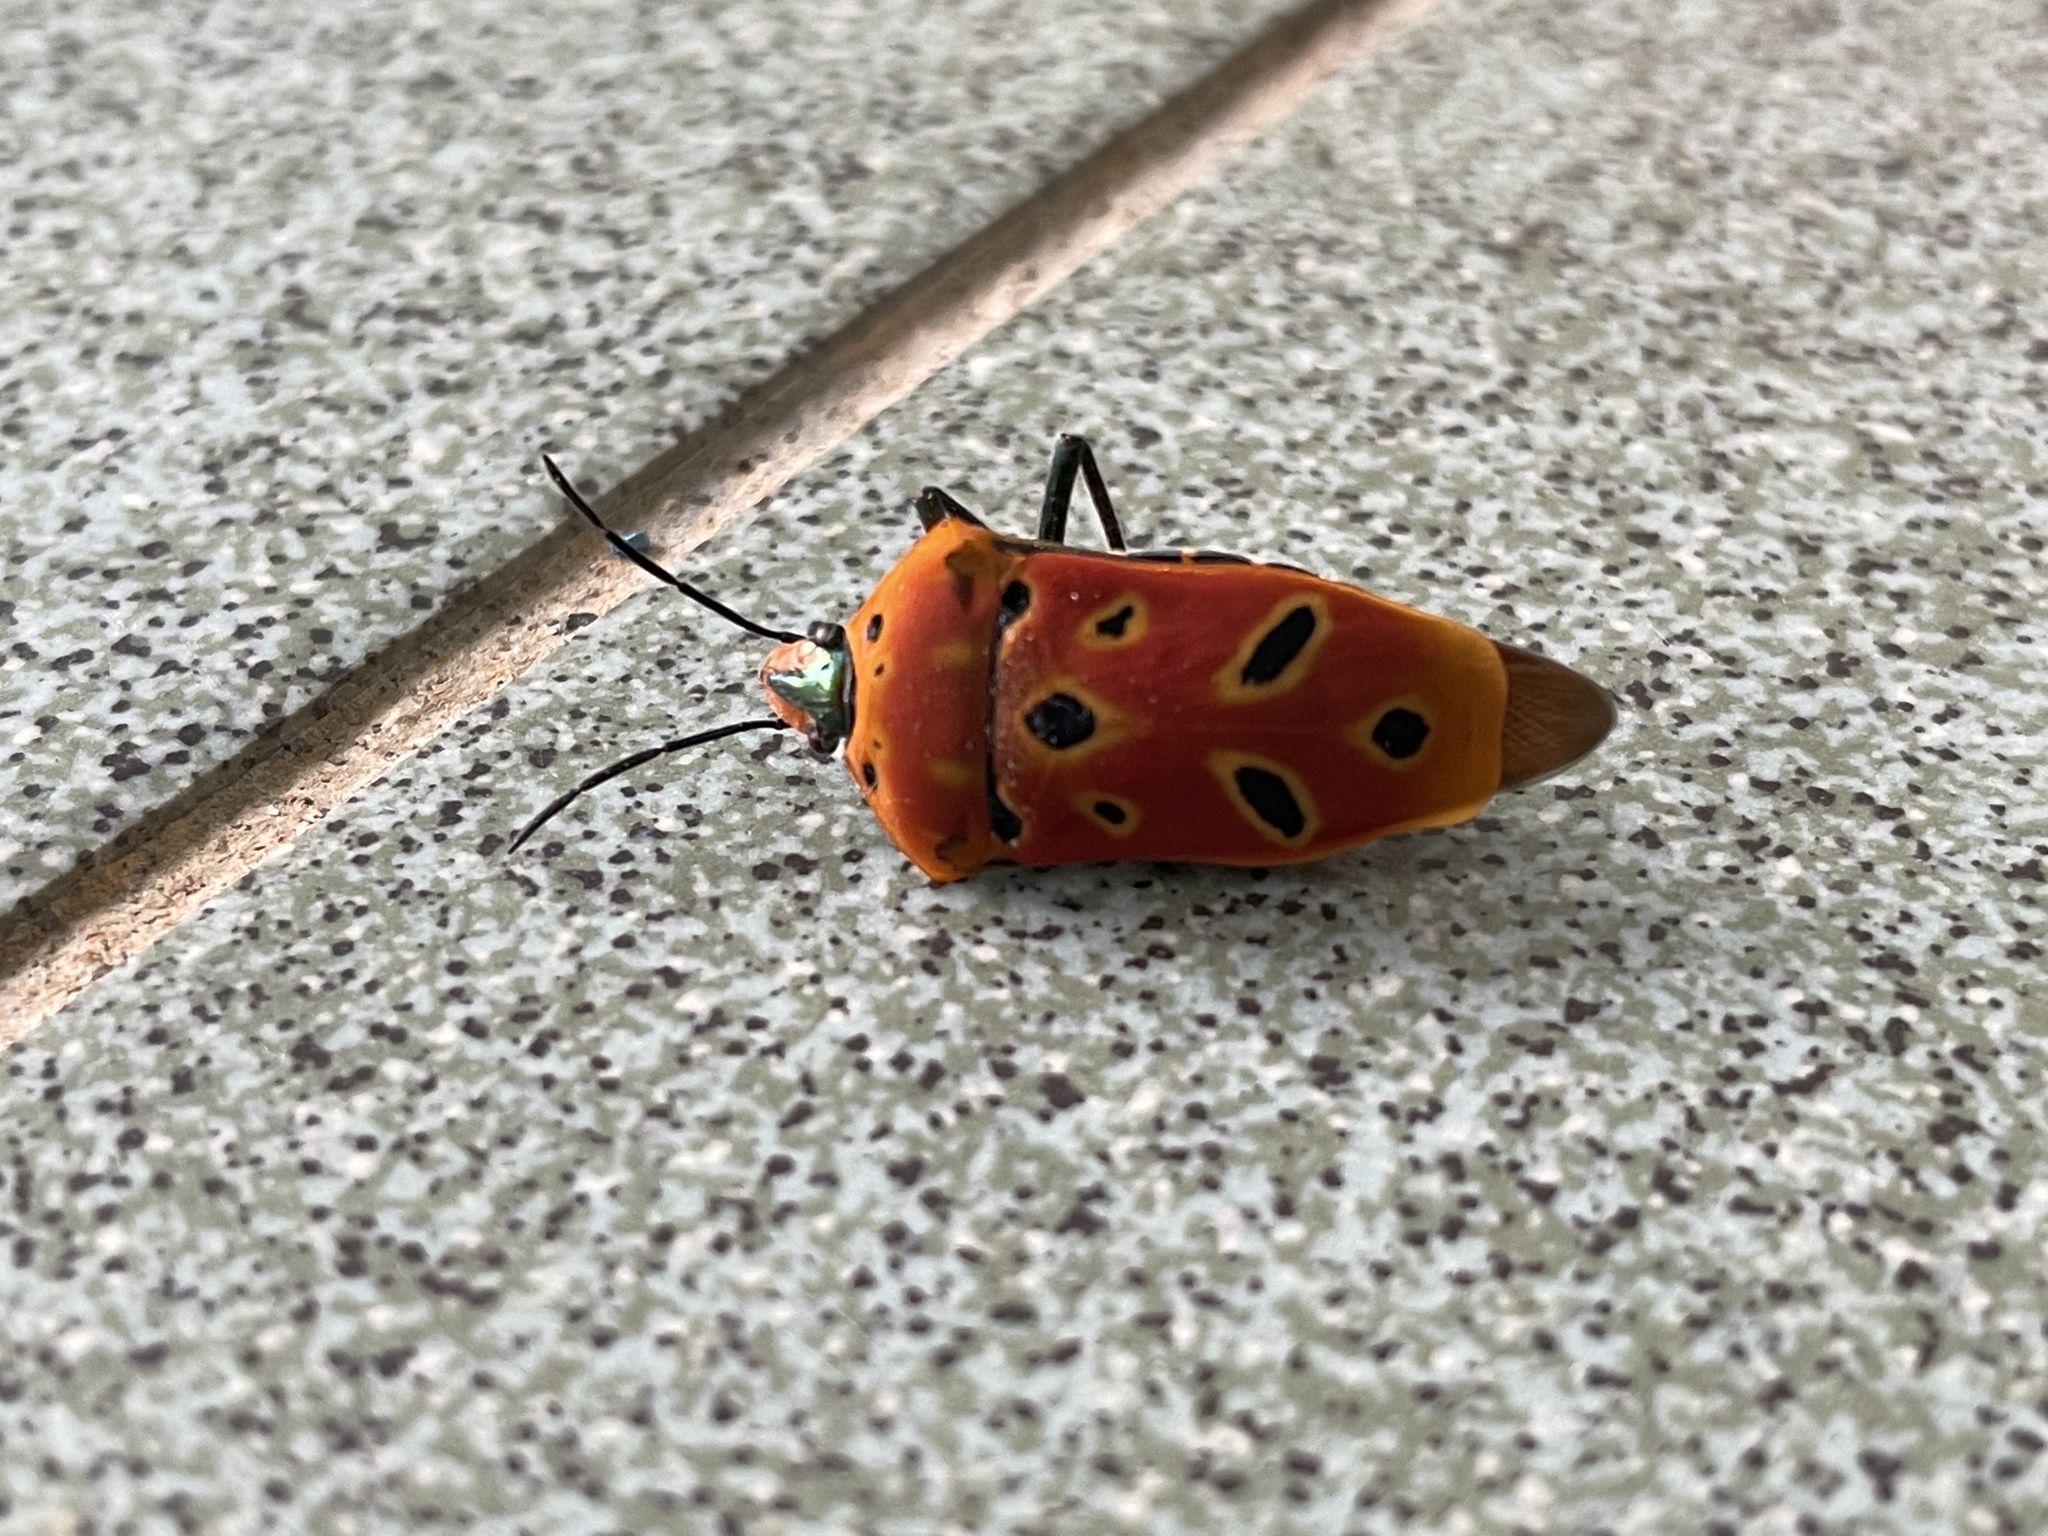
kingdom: Animalia
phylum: Arthropoda
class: Insecta
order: Hemiptera
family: Scutelleridae
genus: Cantao
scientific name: Cantao ocellatus
